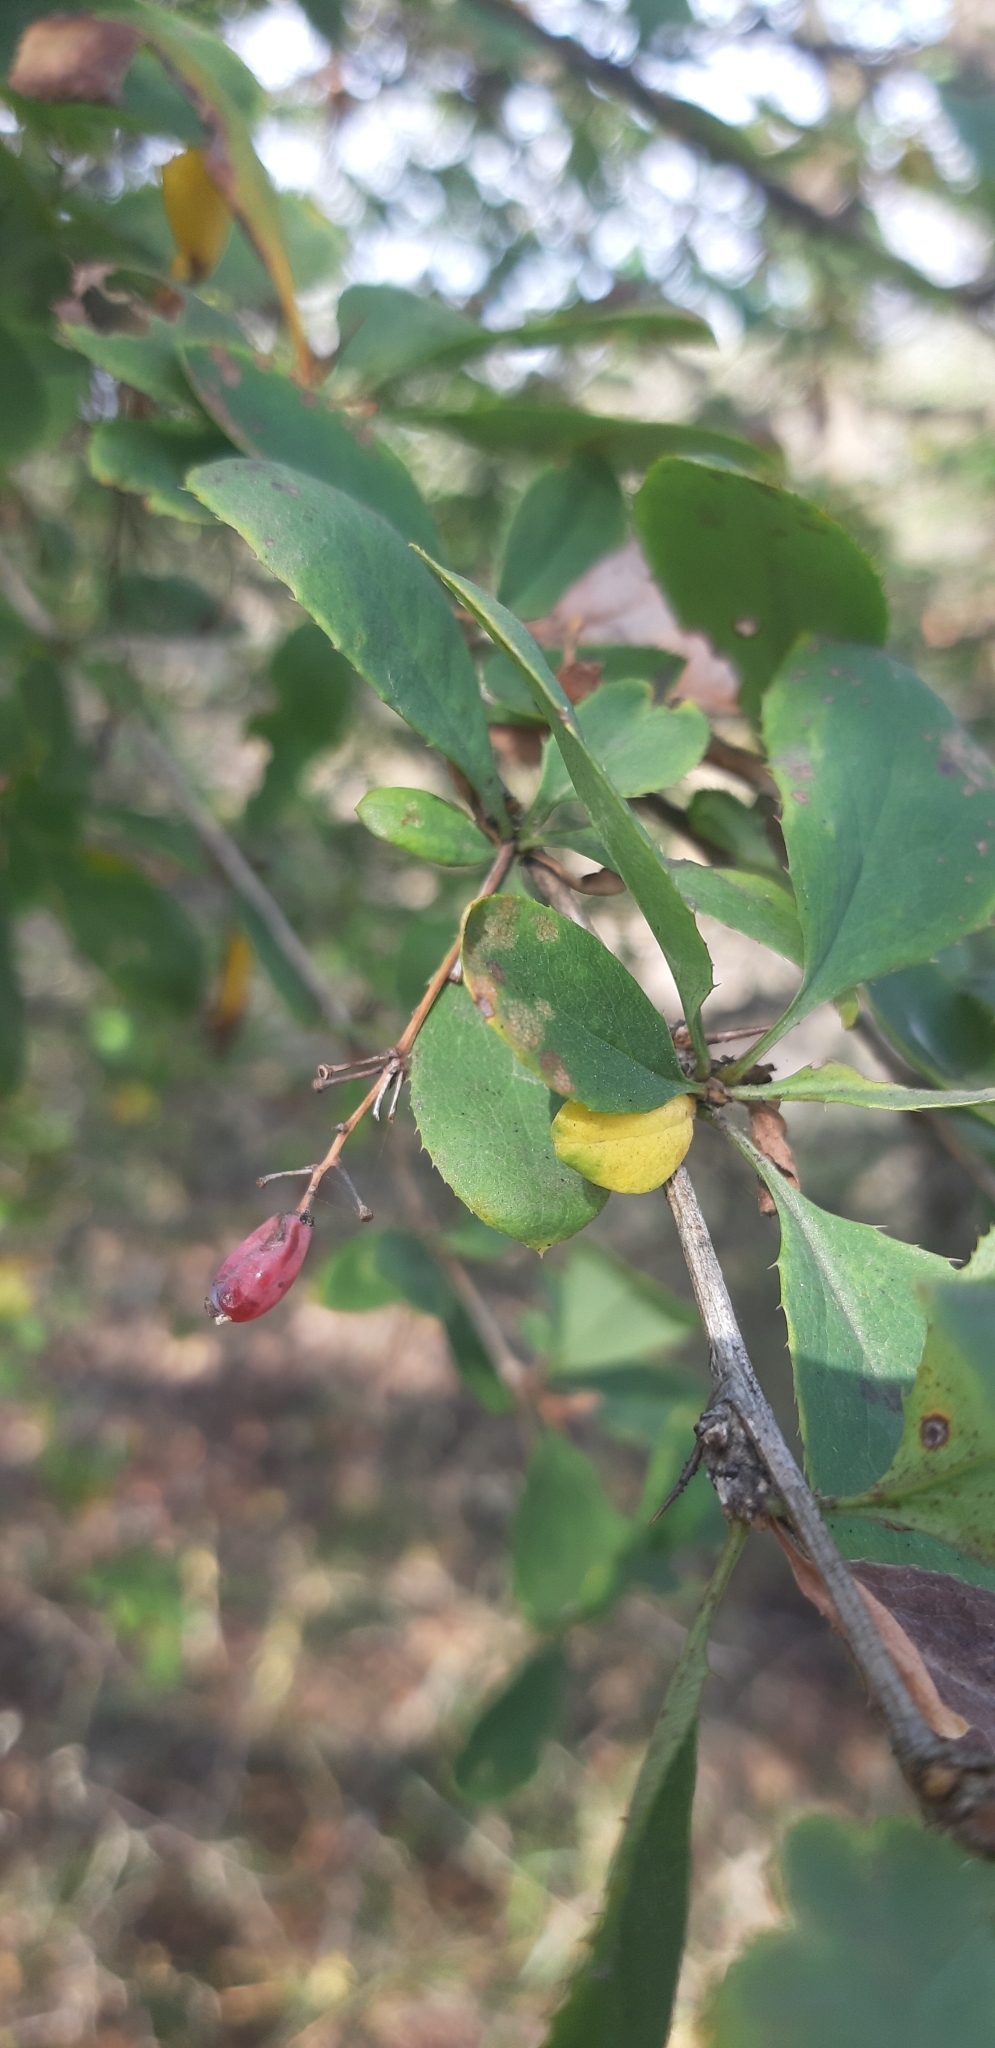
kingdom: Plantae
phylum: Tracheophyta
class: Magnoliopsida
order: Ranunculales
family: Berberidaceae
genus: Berberis
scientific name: Berberis vulgaris
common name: Barberry
